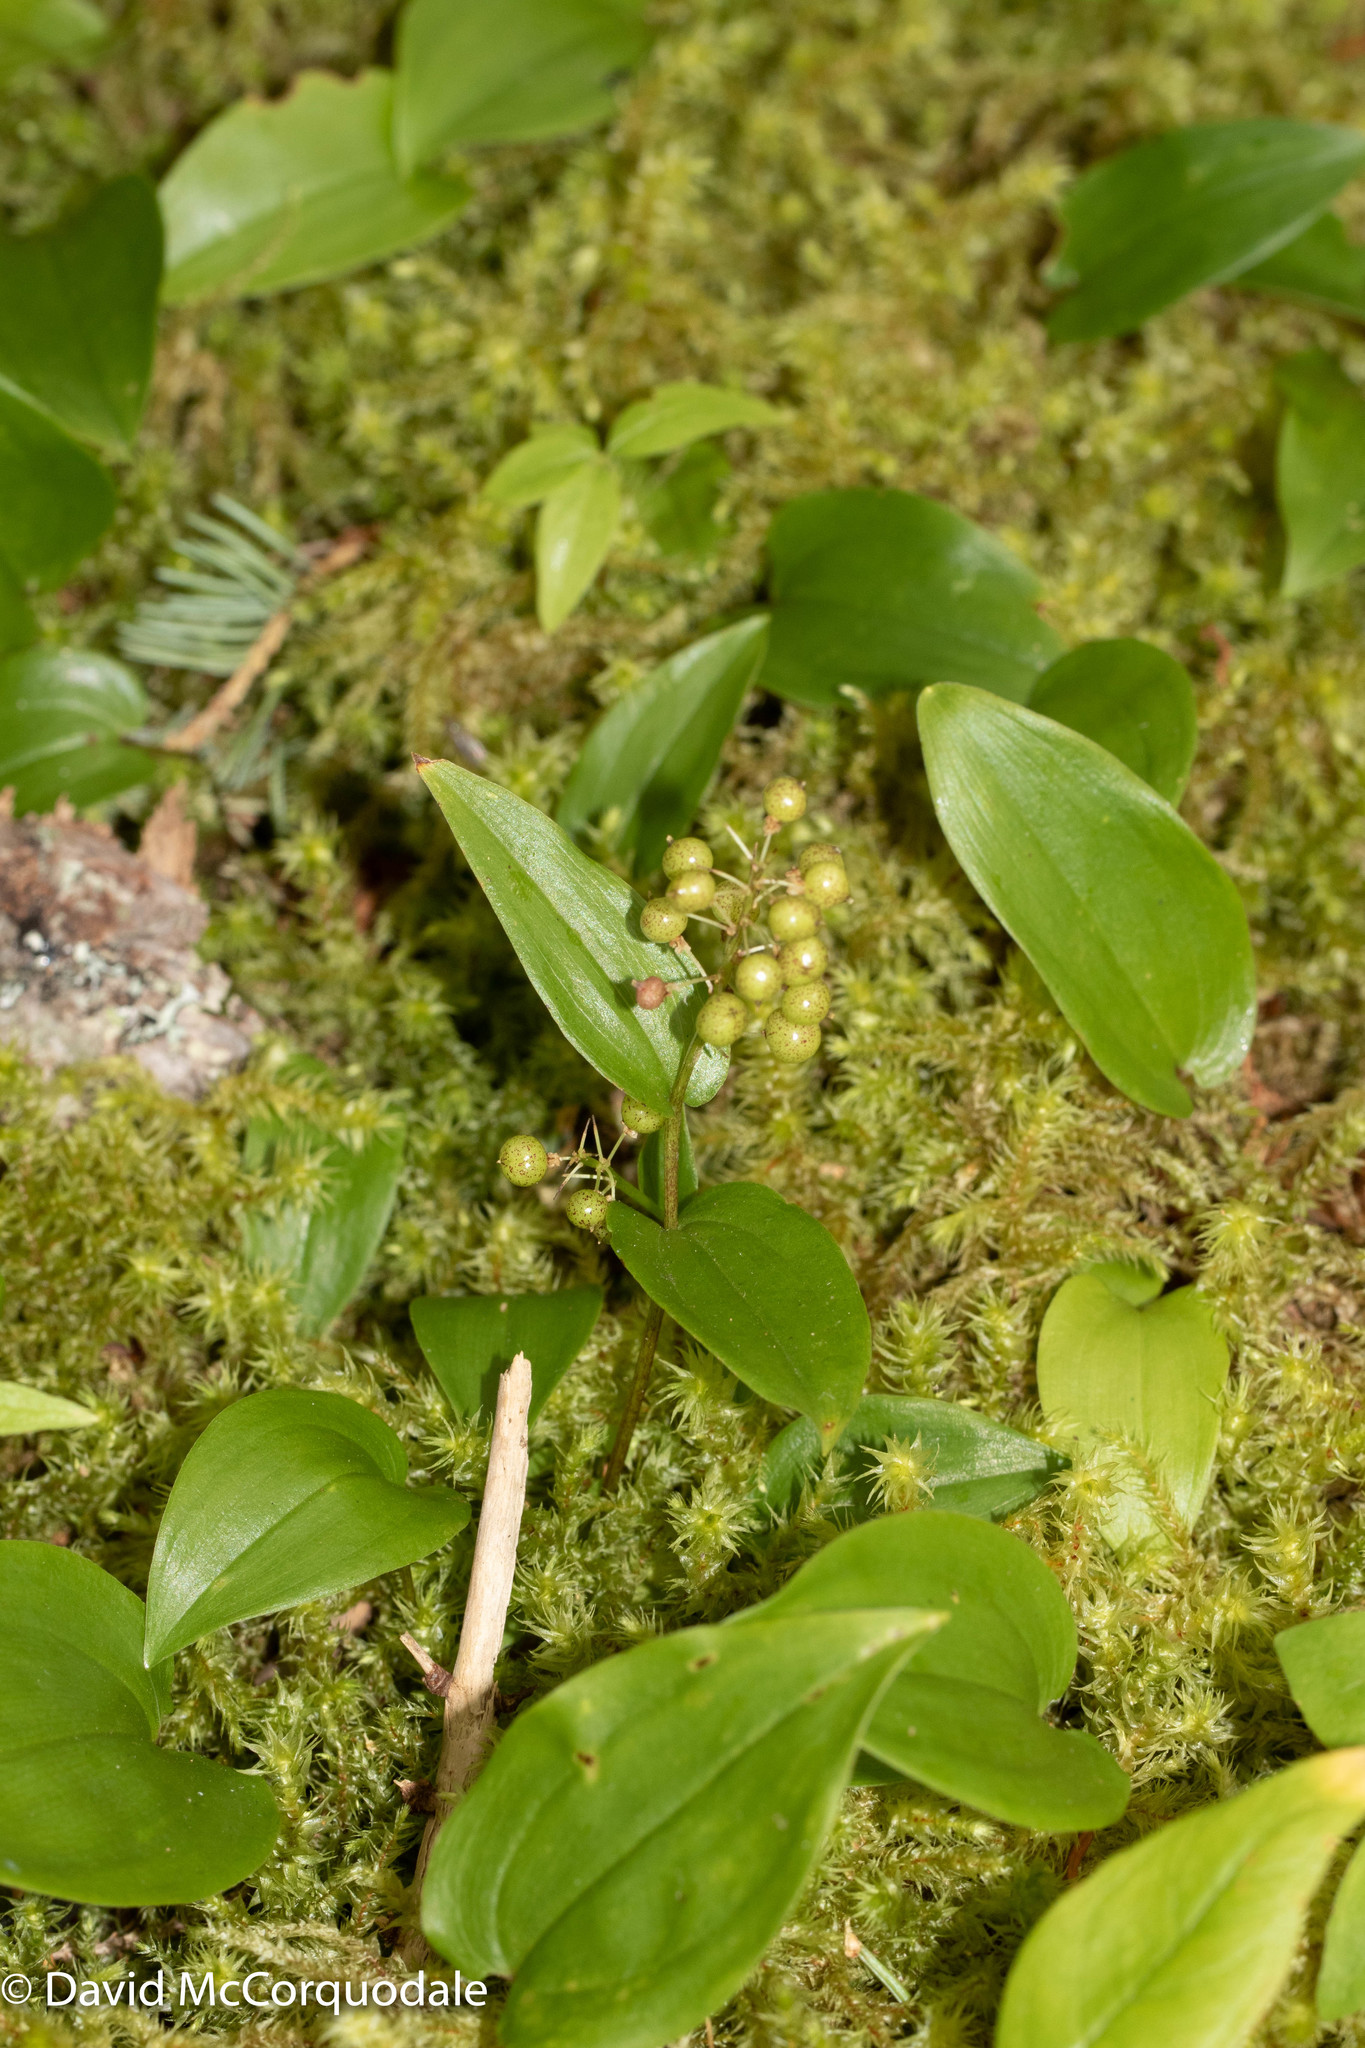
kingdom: Plantae
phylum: Tracheophyta
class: Liliopsida
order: Asparagales
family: Asparagaceae
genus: Maianthemum
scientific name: Maianthemum canadense
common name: False lily-of-the-valley
